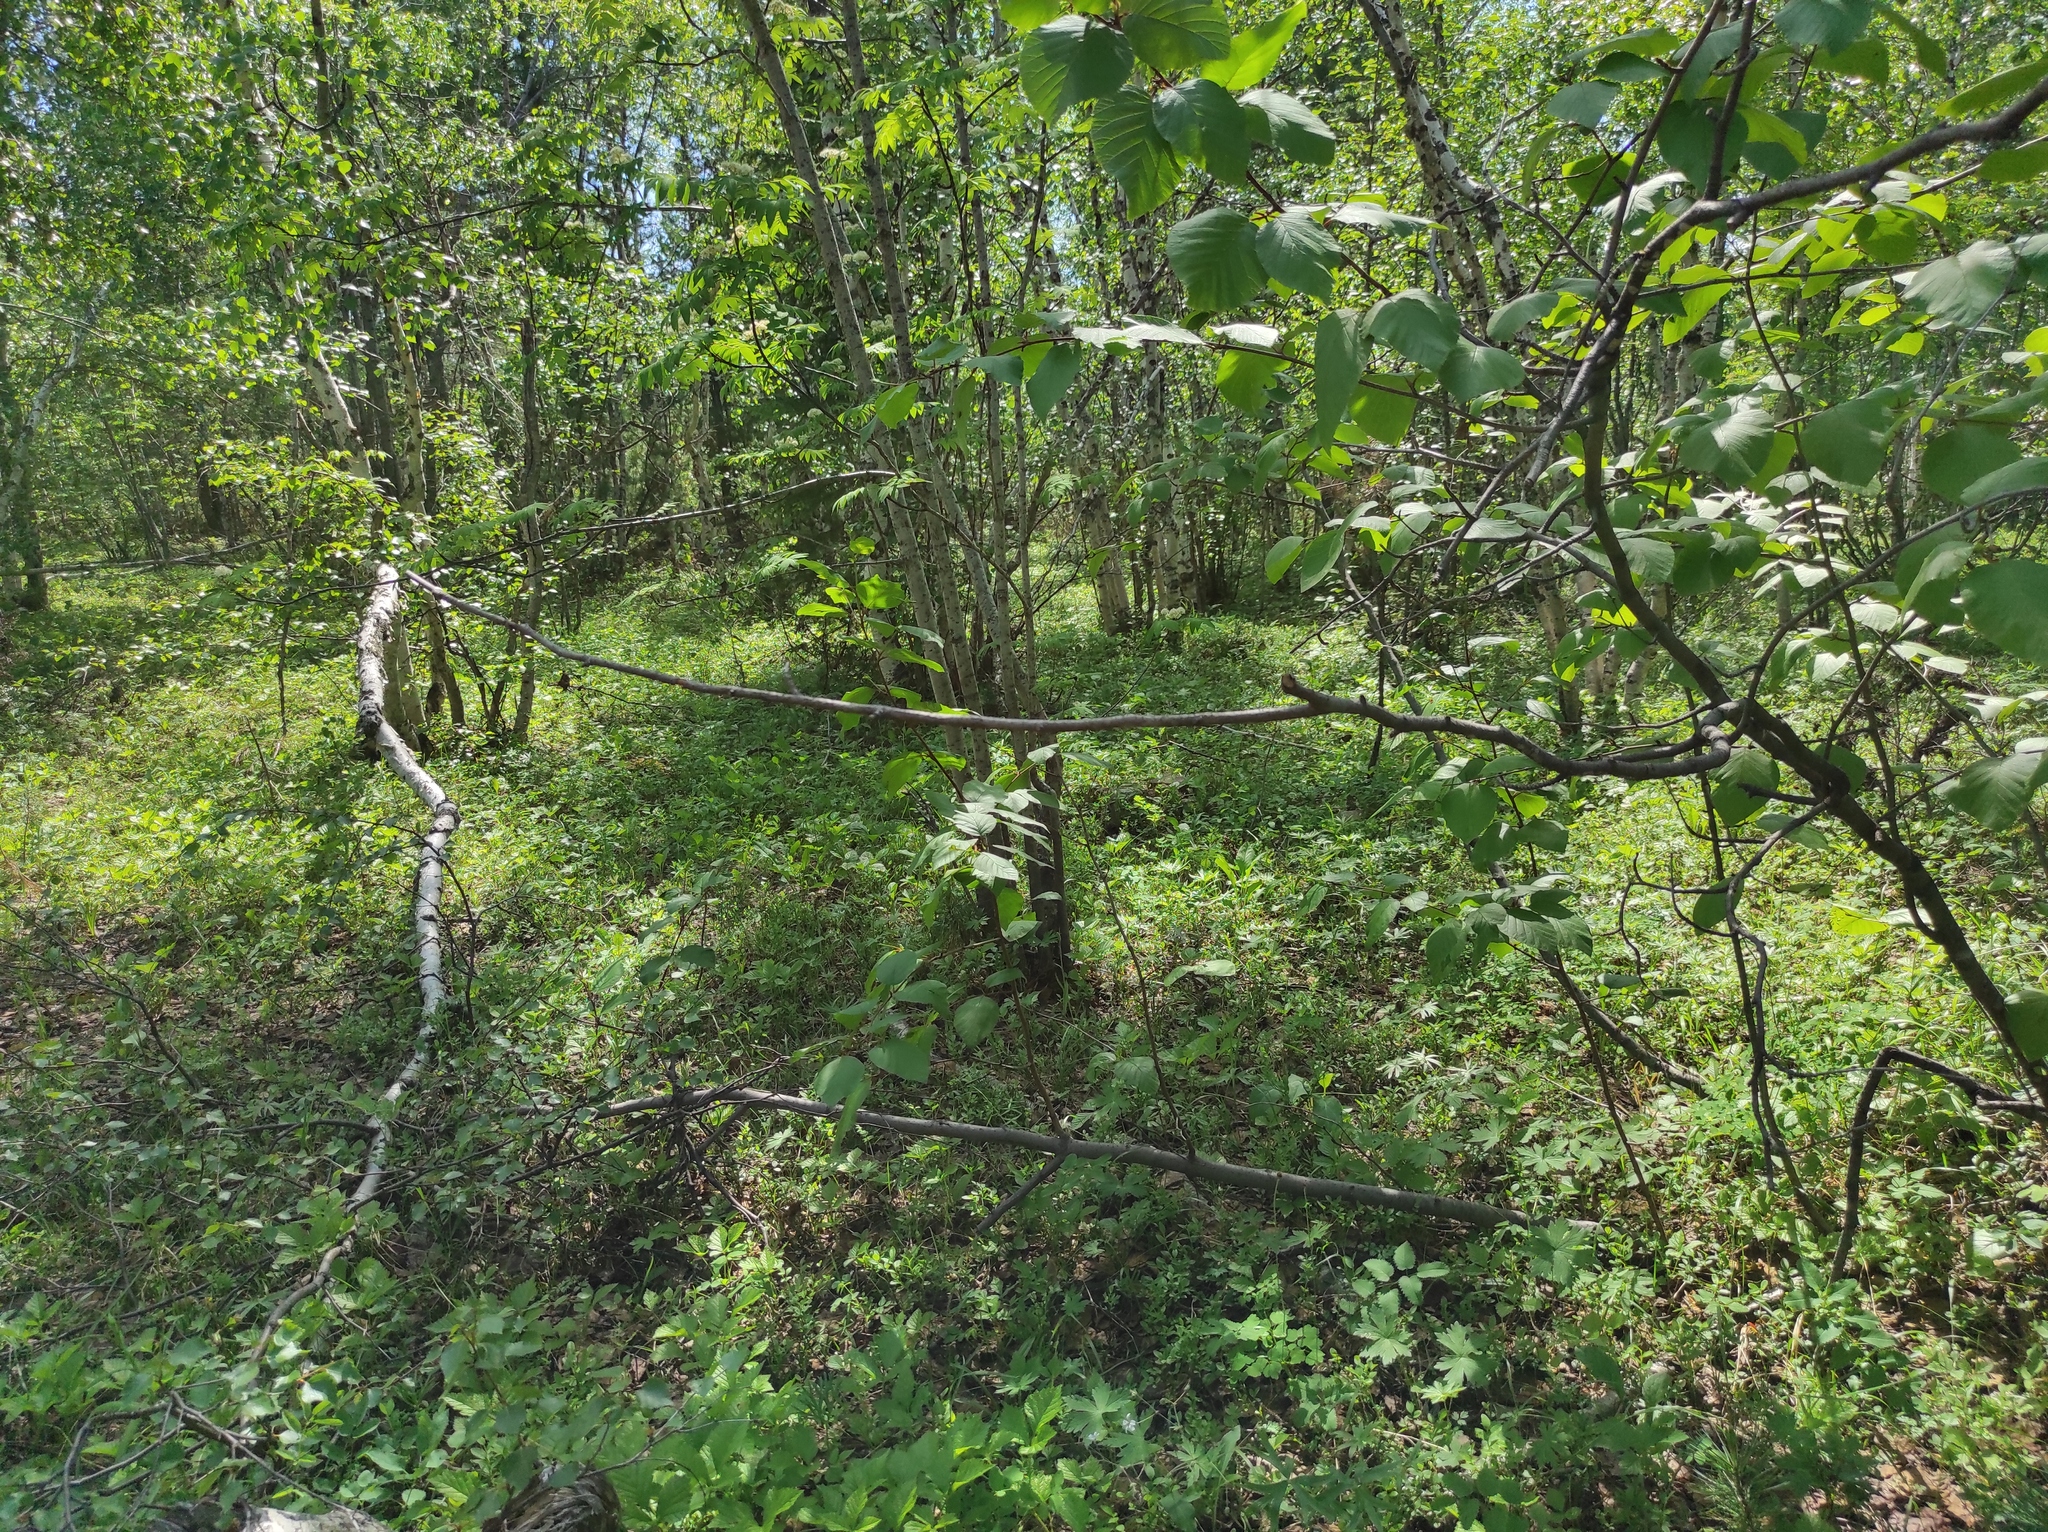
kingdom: Plantae
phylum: Tracheophyta
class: Magnoliopsida
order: Rosales
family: Rosaceae
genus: Sorbus
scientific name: Sorbus aucuparia
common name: Rowan
